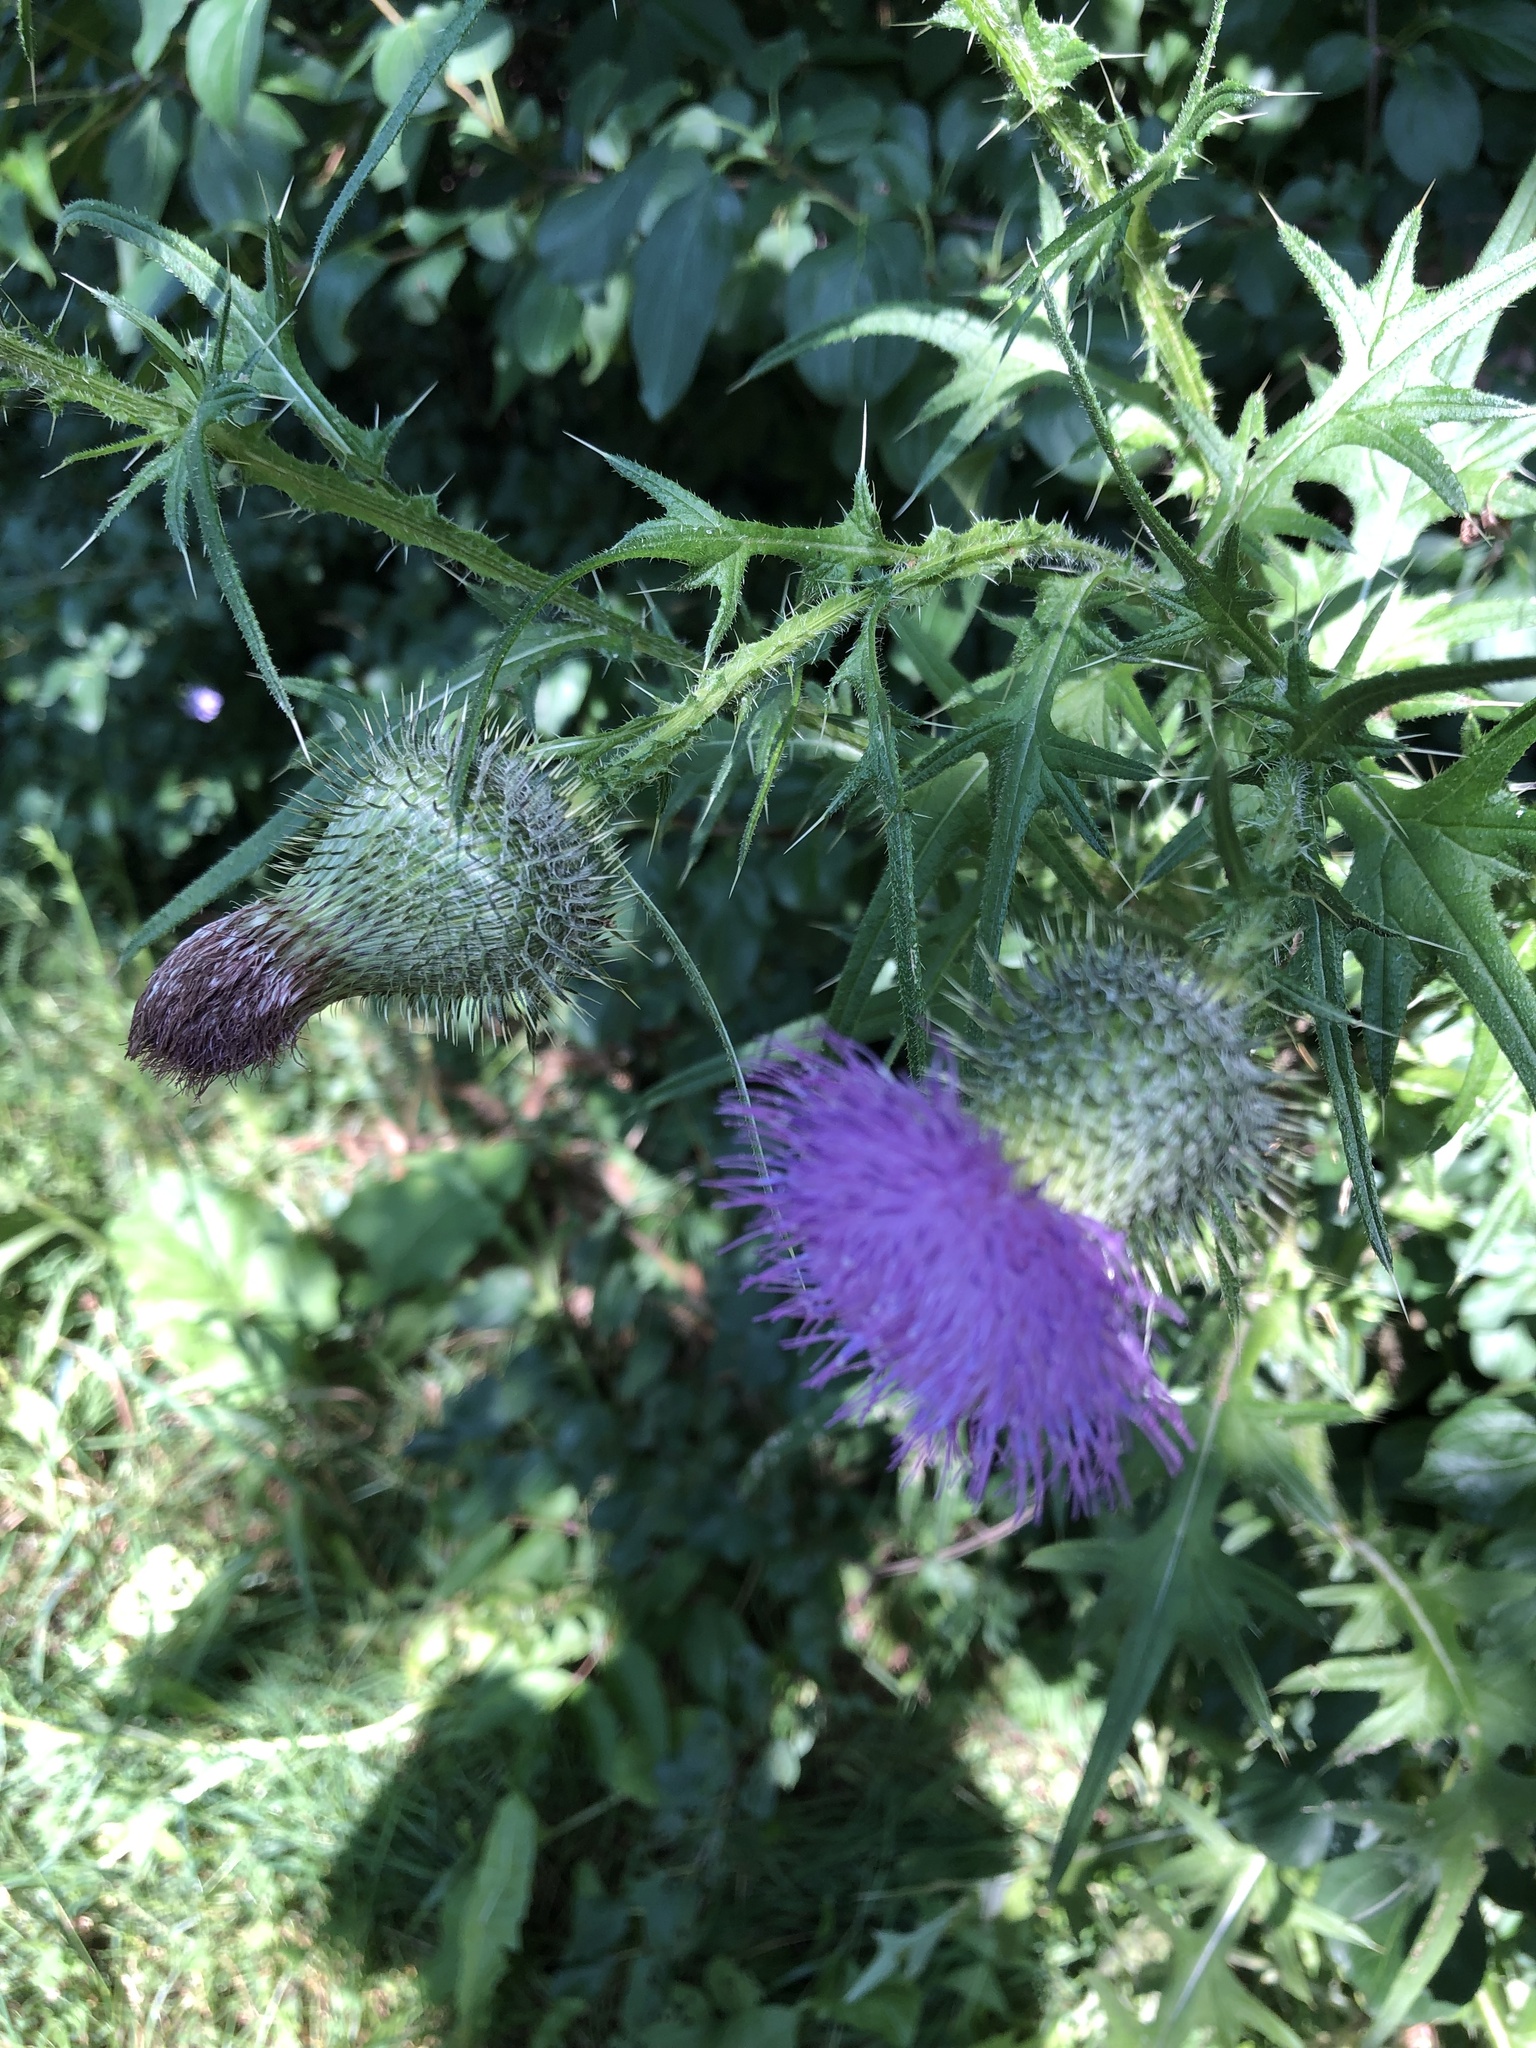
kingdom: Plantae
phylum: Tracheophyta
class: Magnoliopsida
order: Asterales
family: Asteraceae
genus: Cirsium
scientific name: Cirsium vulgare
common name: Bull thistle
